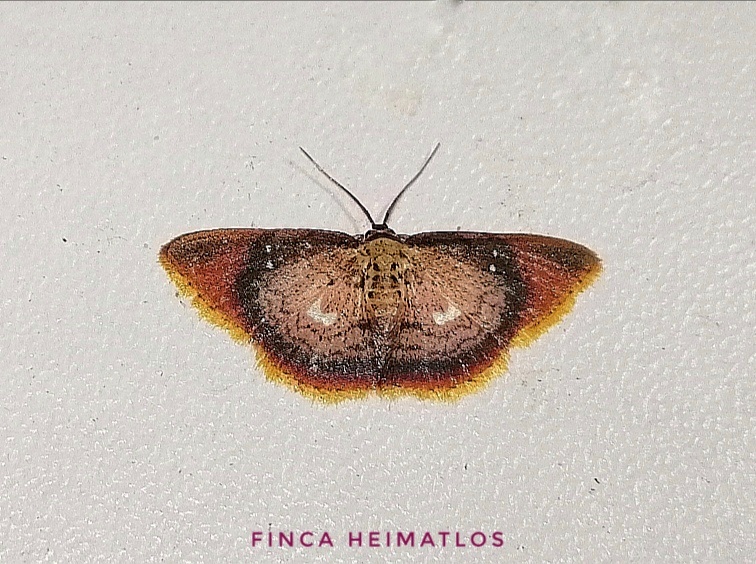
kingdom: Animalia
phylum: Arthropoda
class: Insecta
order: Lepidoptera
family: Geometridae
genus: Tricentra
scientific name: Tricentra albiguttata
